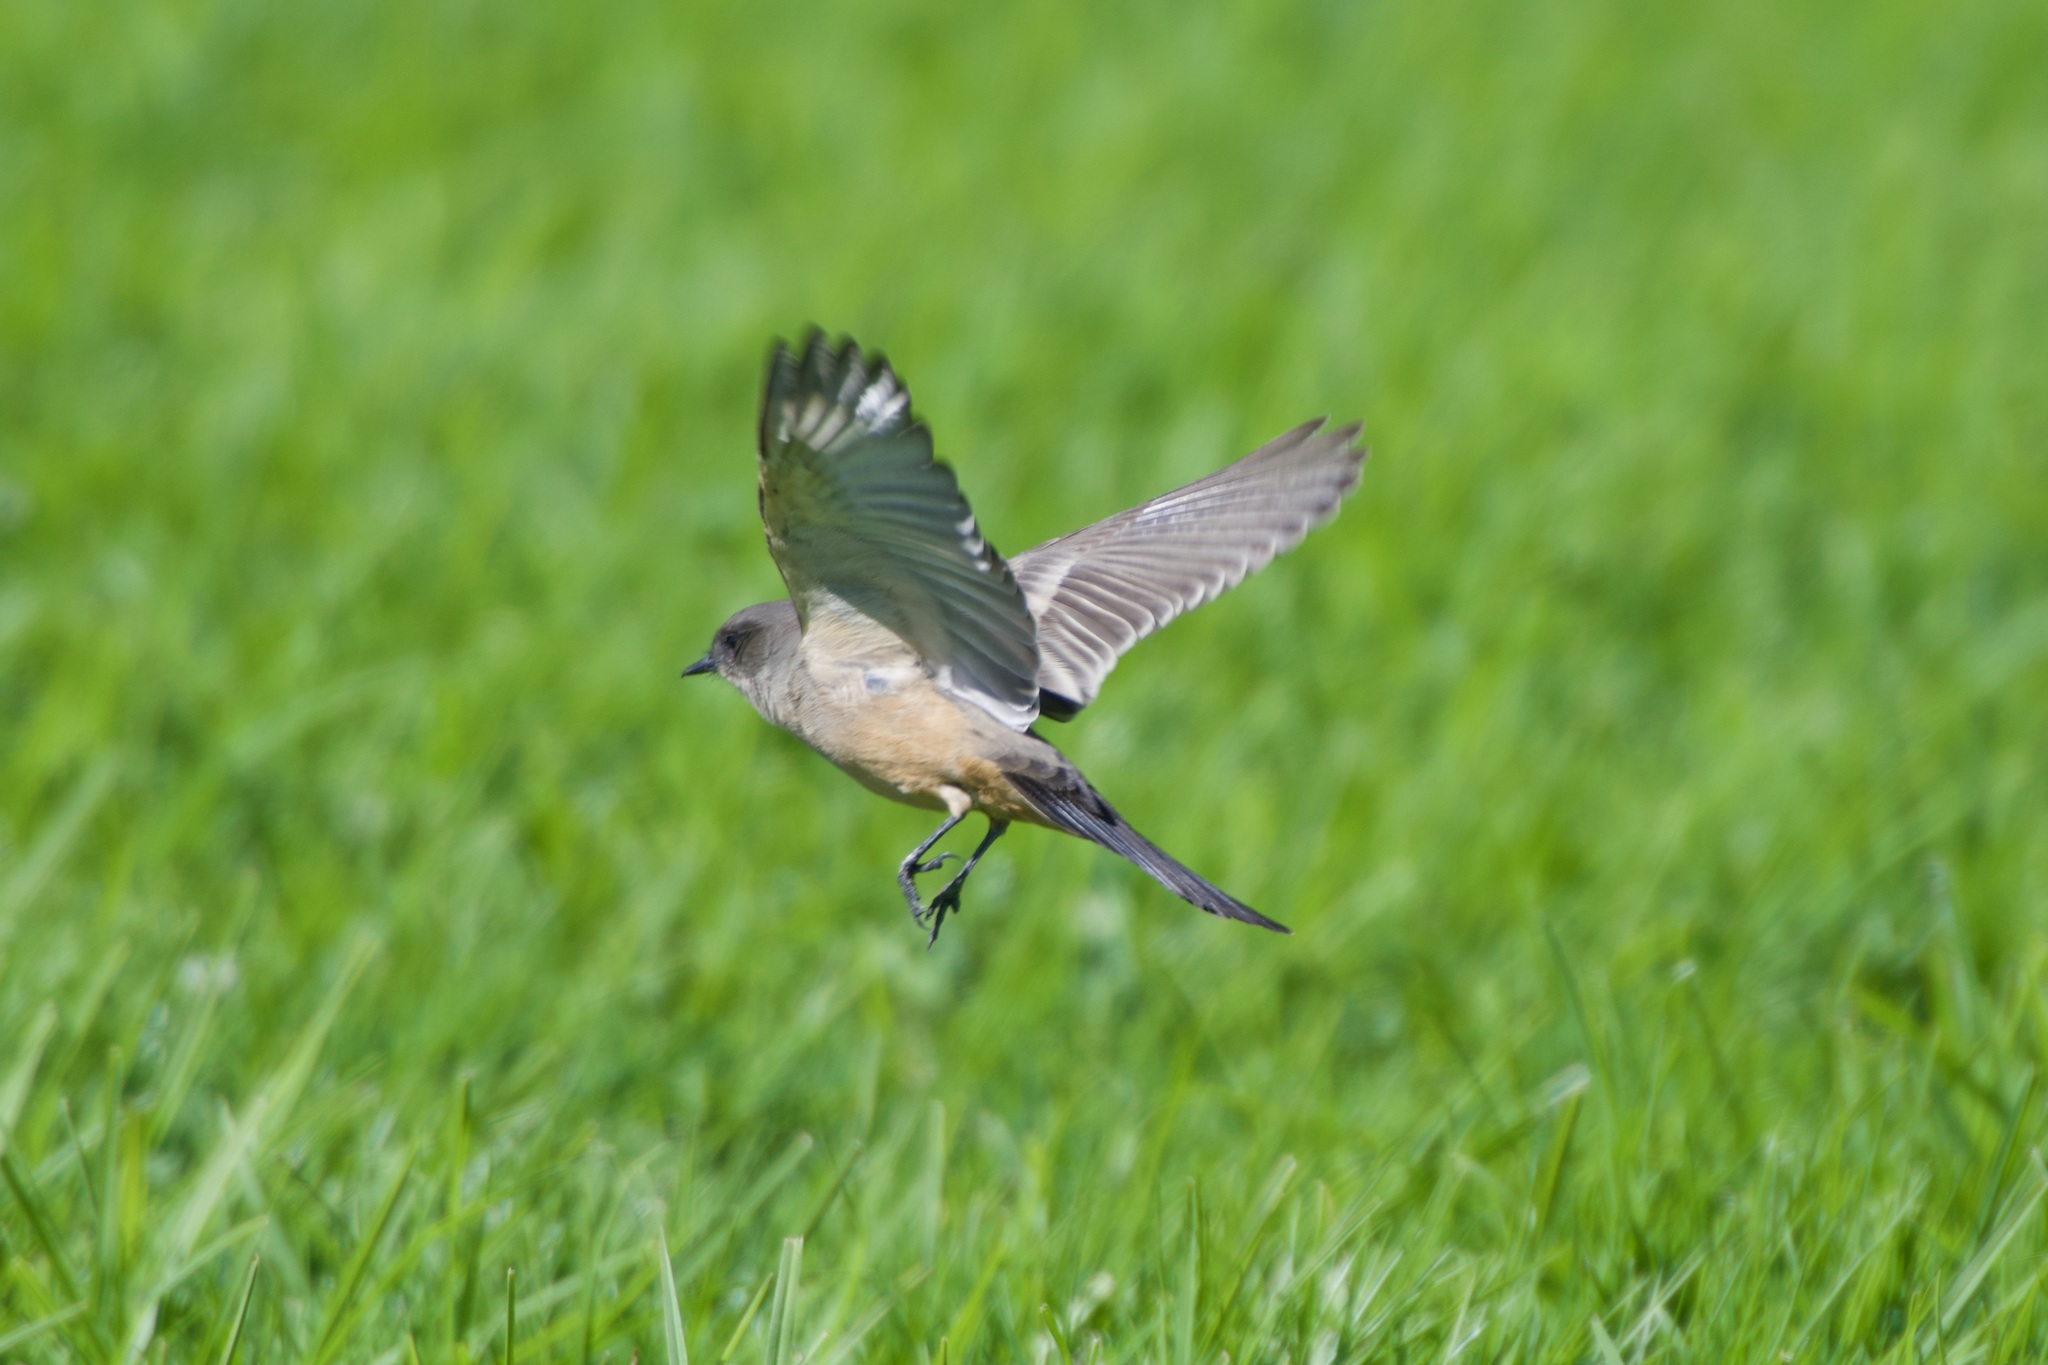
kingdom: Animalia
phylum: Chordata
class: Aves
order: Passeriformes
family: Tyrannidae
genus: Sayornis
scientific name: Sayornis saya
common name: Say's phoebe
